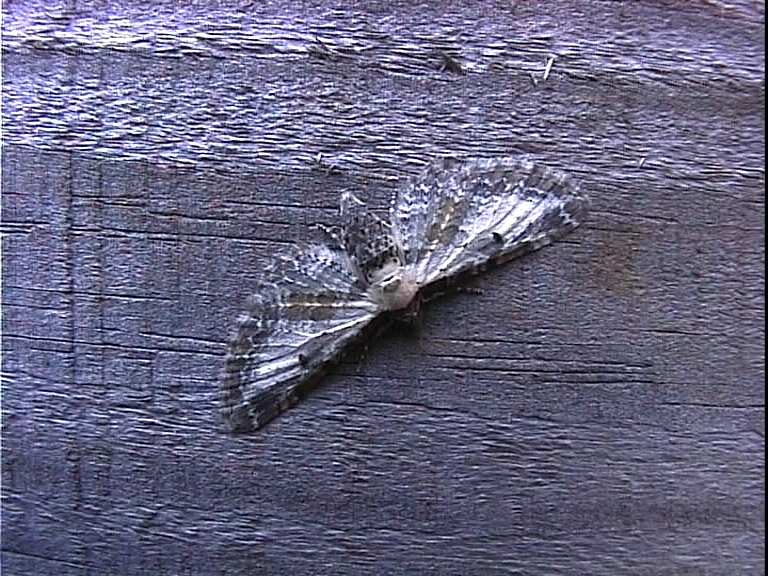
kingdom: Animalia
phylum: Arthropoda
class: Insecta
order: Lepidoptera
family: Geometridae
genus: Eupithecia
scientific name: Eupithecia succenturiata
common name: Bordered pug
